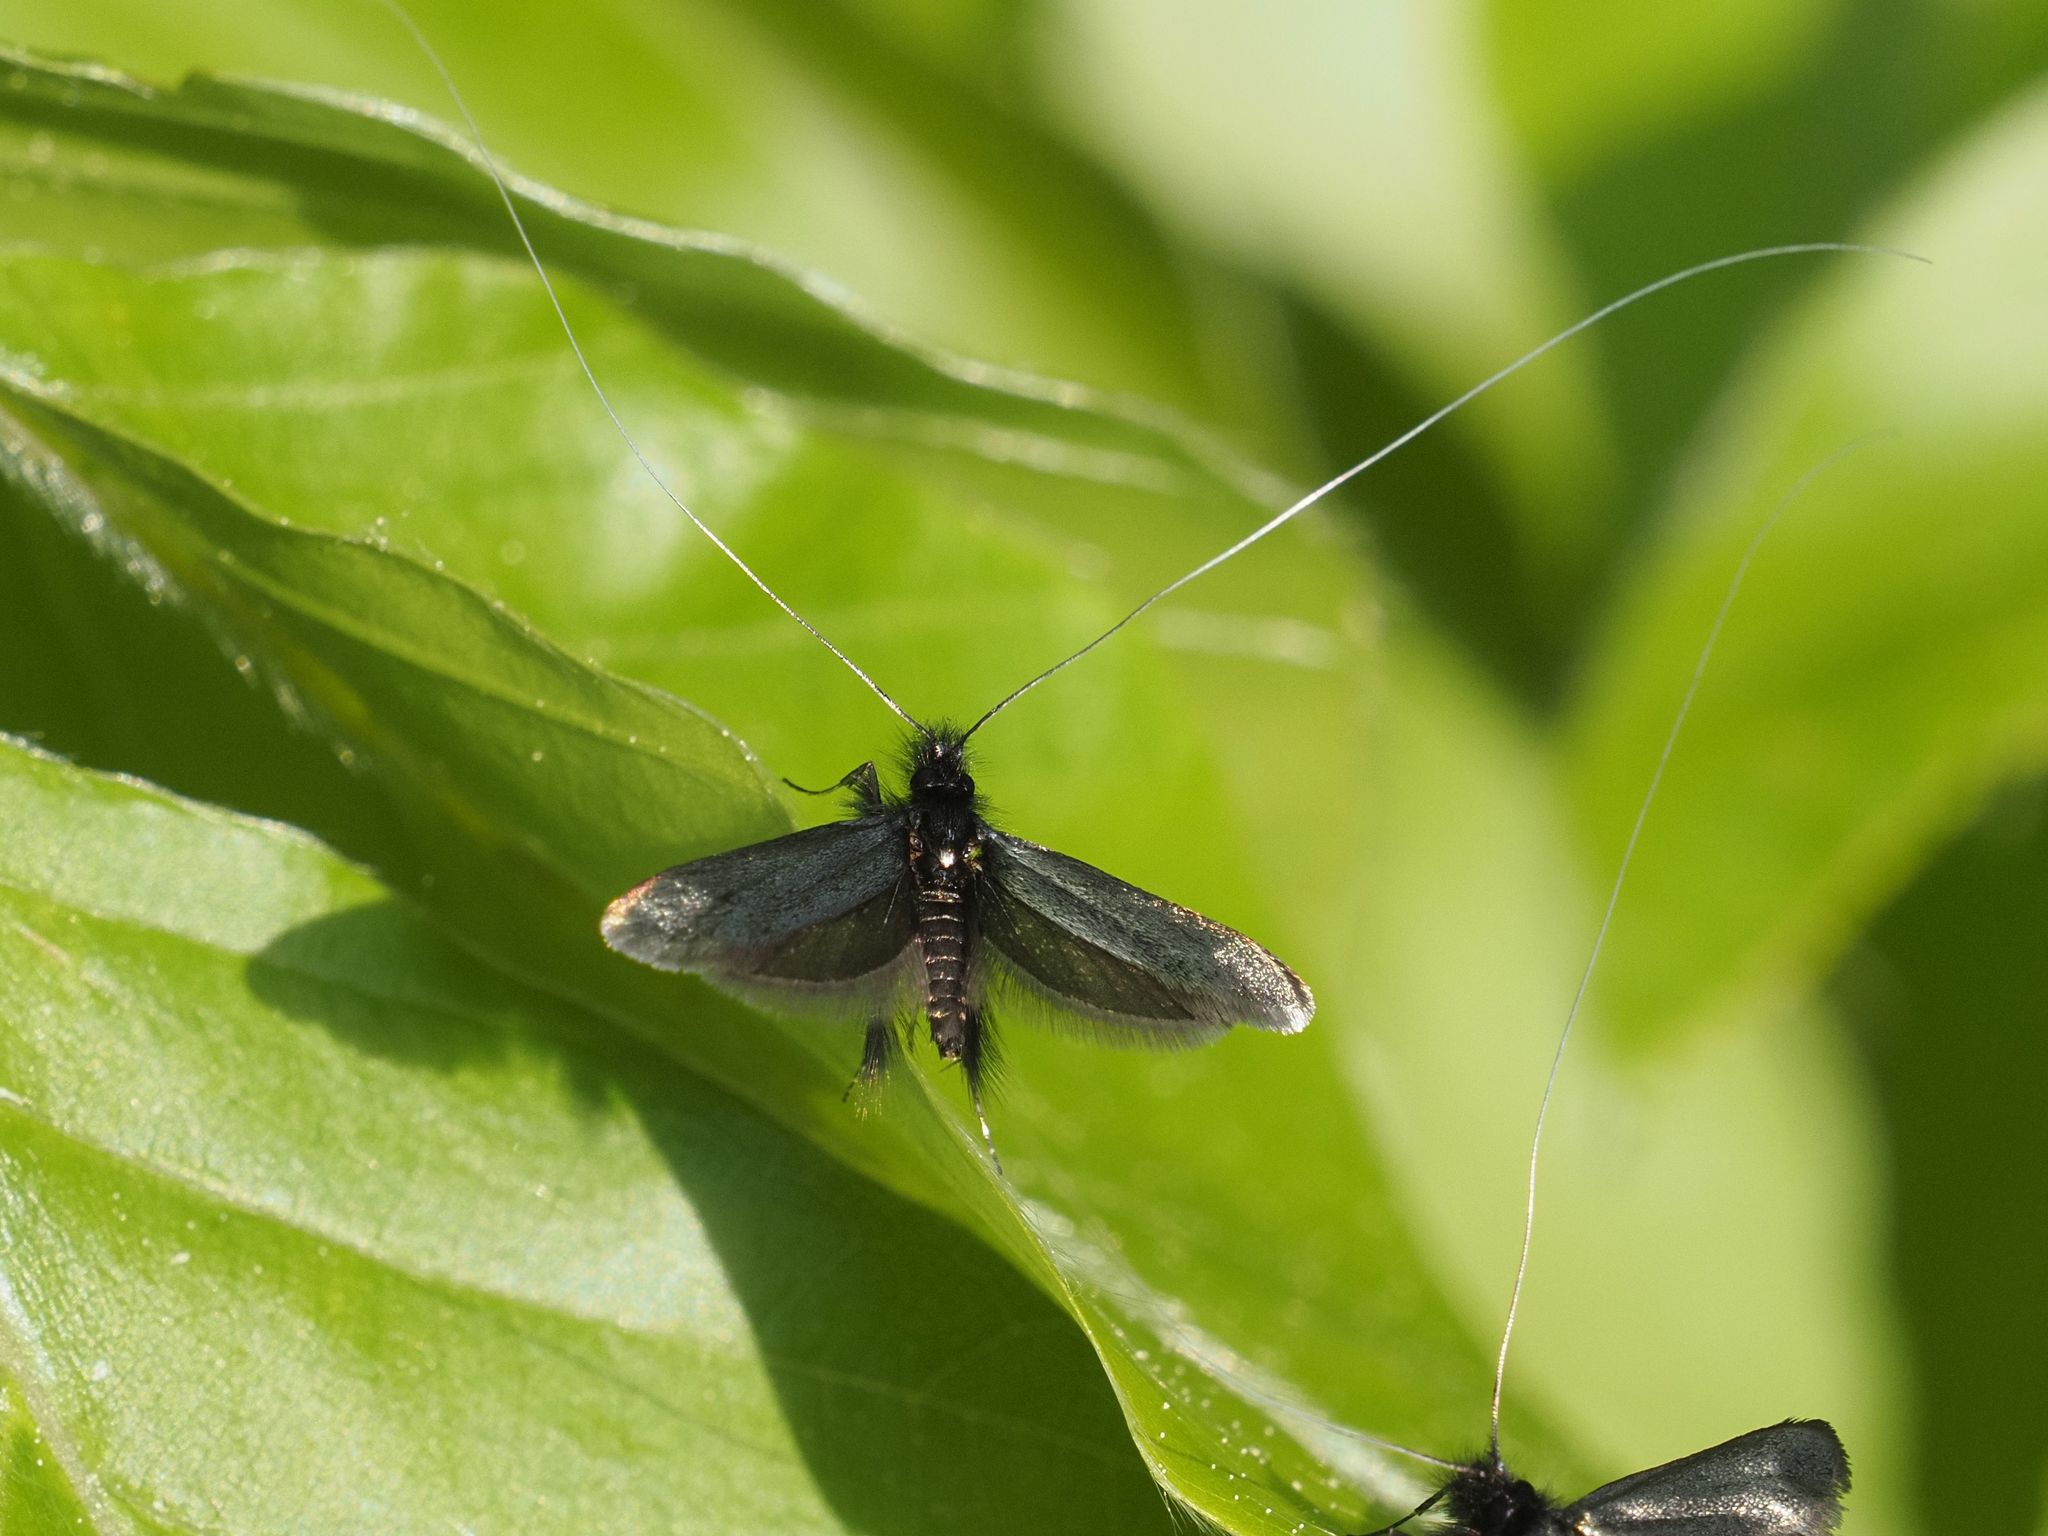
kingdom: Animalia
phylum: Arthropoda
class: Insecta
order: Lepidoptera
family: Adelidae
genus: Adela
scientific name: Adela viridella
